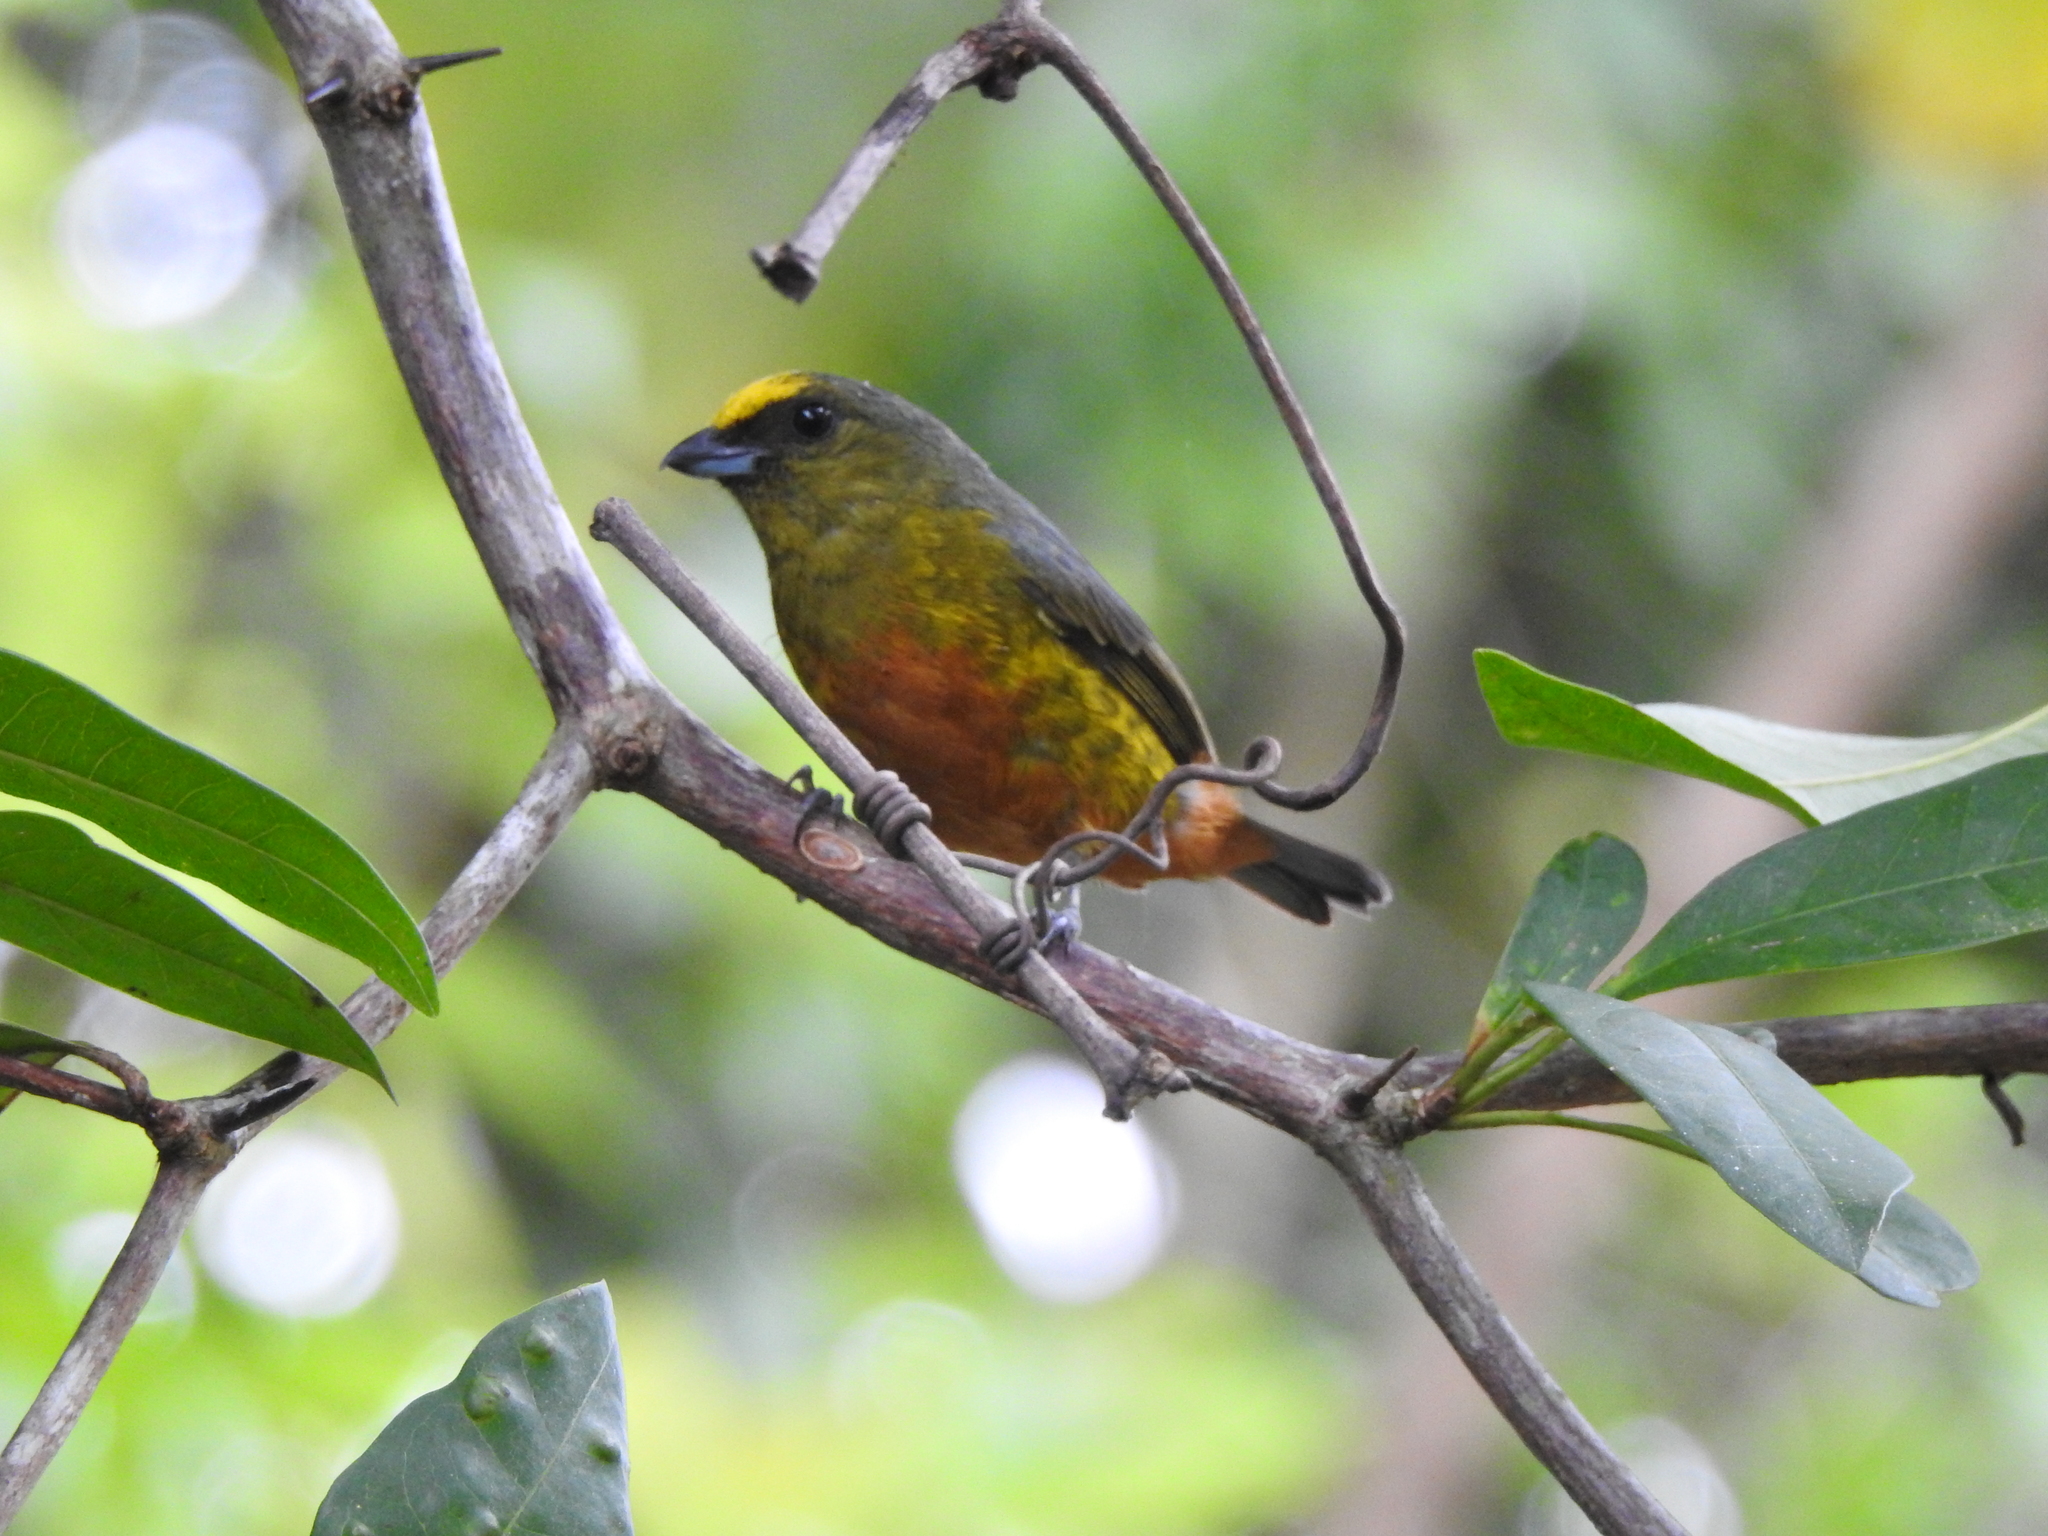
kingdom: Animalia
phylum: Chordata
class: Aves
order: Passeriformes
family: Fringillidae
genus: Euphonia
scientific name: Euphonia gouldi
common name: Olive-backed euphonia
